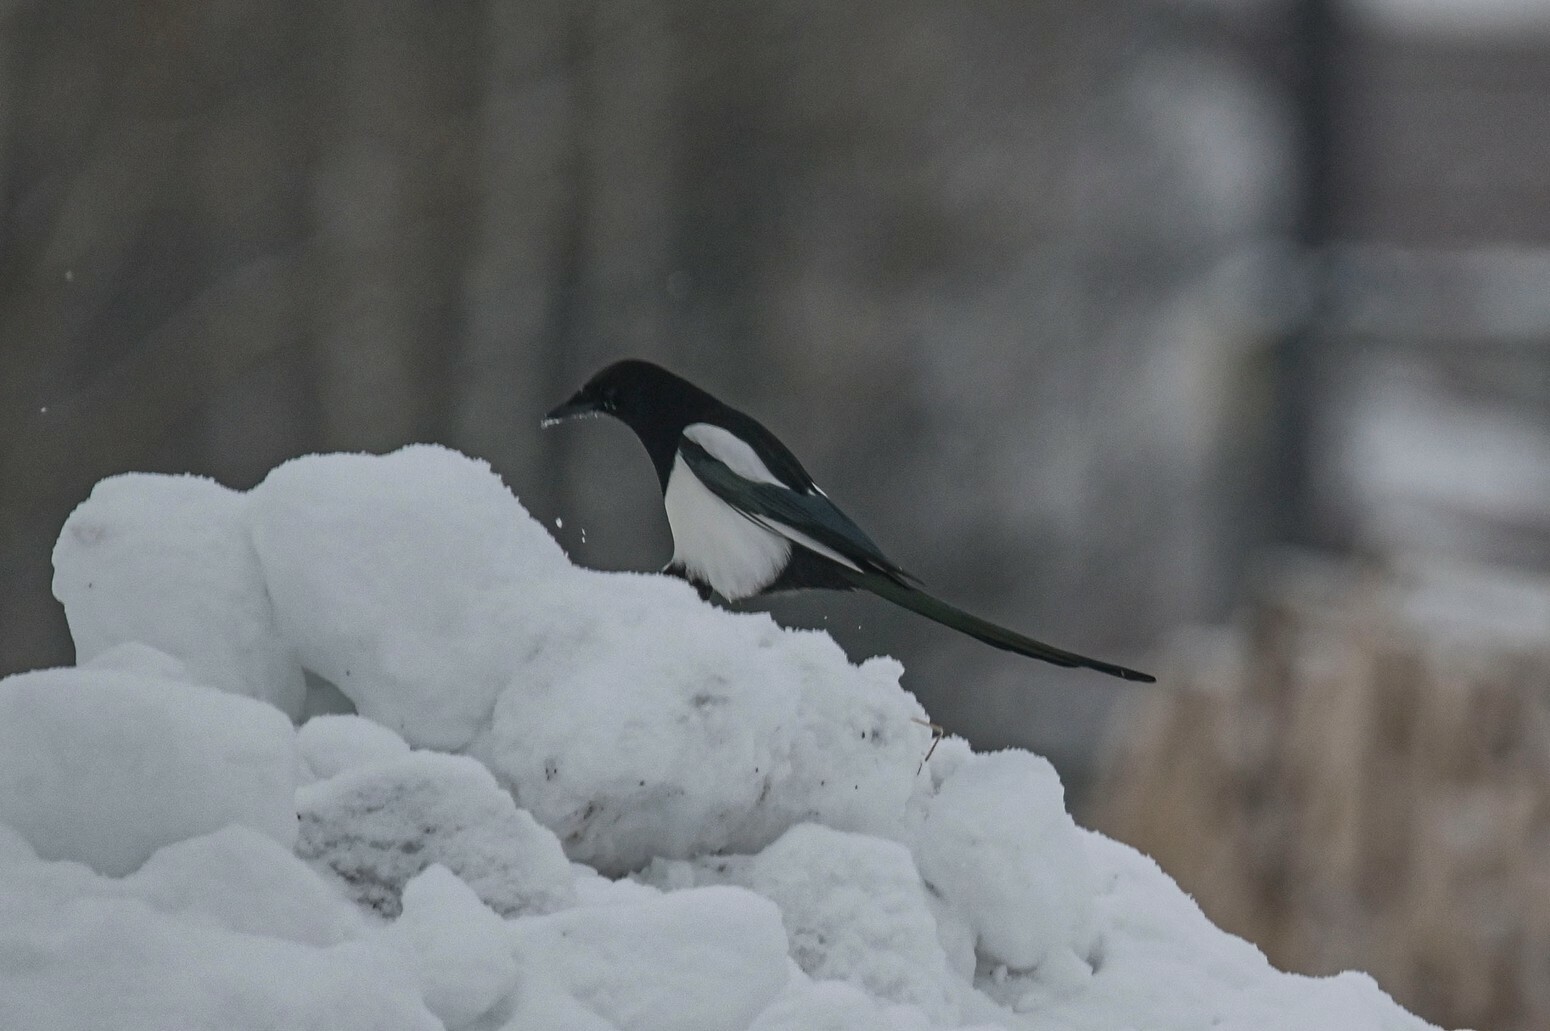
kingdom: Animalia
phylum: Chordata
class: Aves
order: Passeriformes
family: Corvidae
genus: Pica
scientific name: Pica pica
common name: Eurasian magpie
